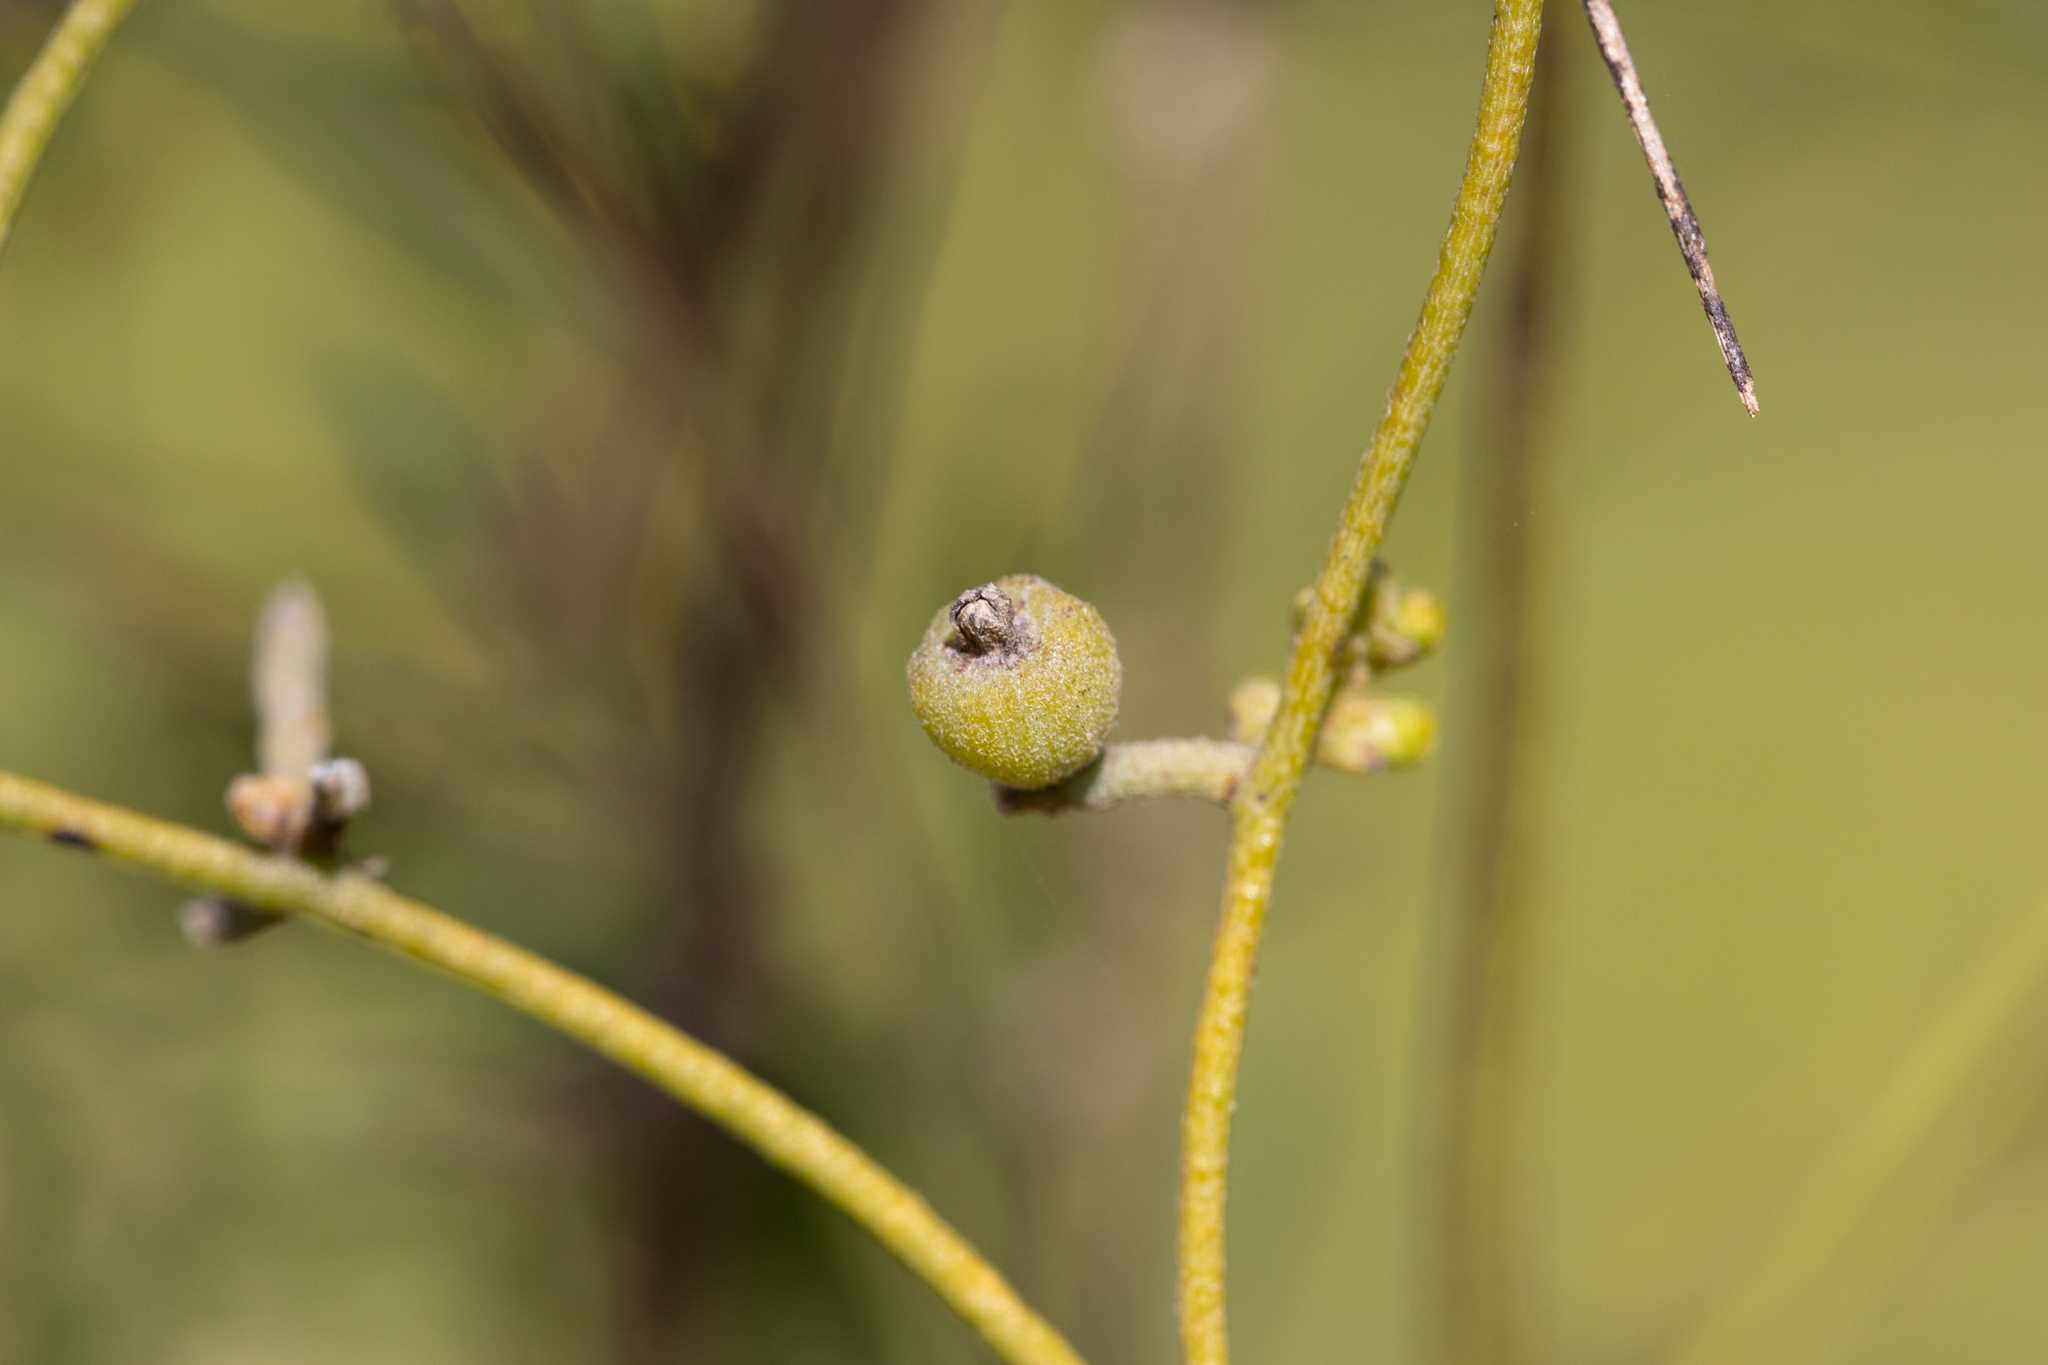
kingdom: Plantae
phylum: Tracheophyta
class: Magnoliopsida
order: Laurales
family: Lauraceae
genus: Cassytha
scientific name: Cassytha pubescens
